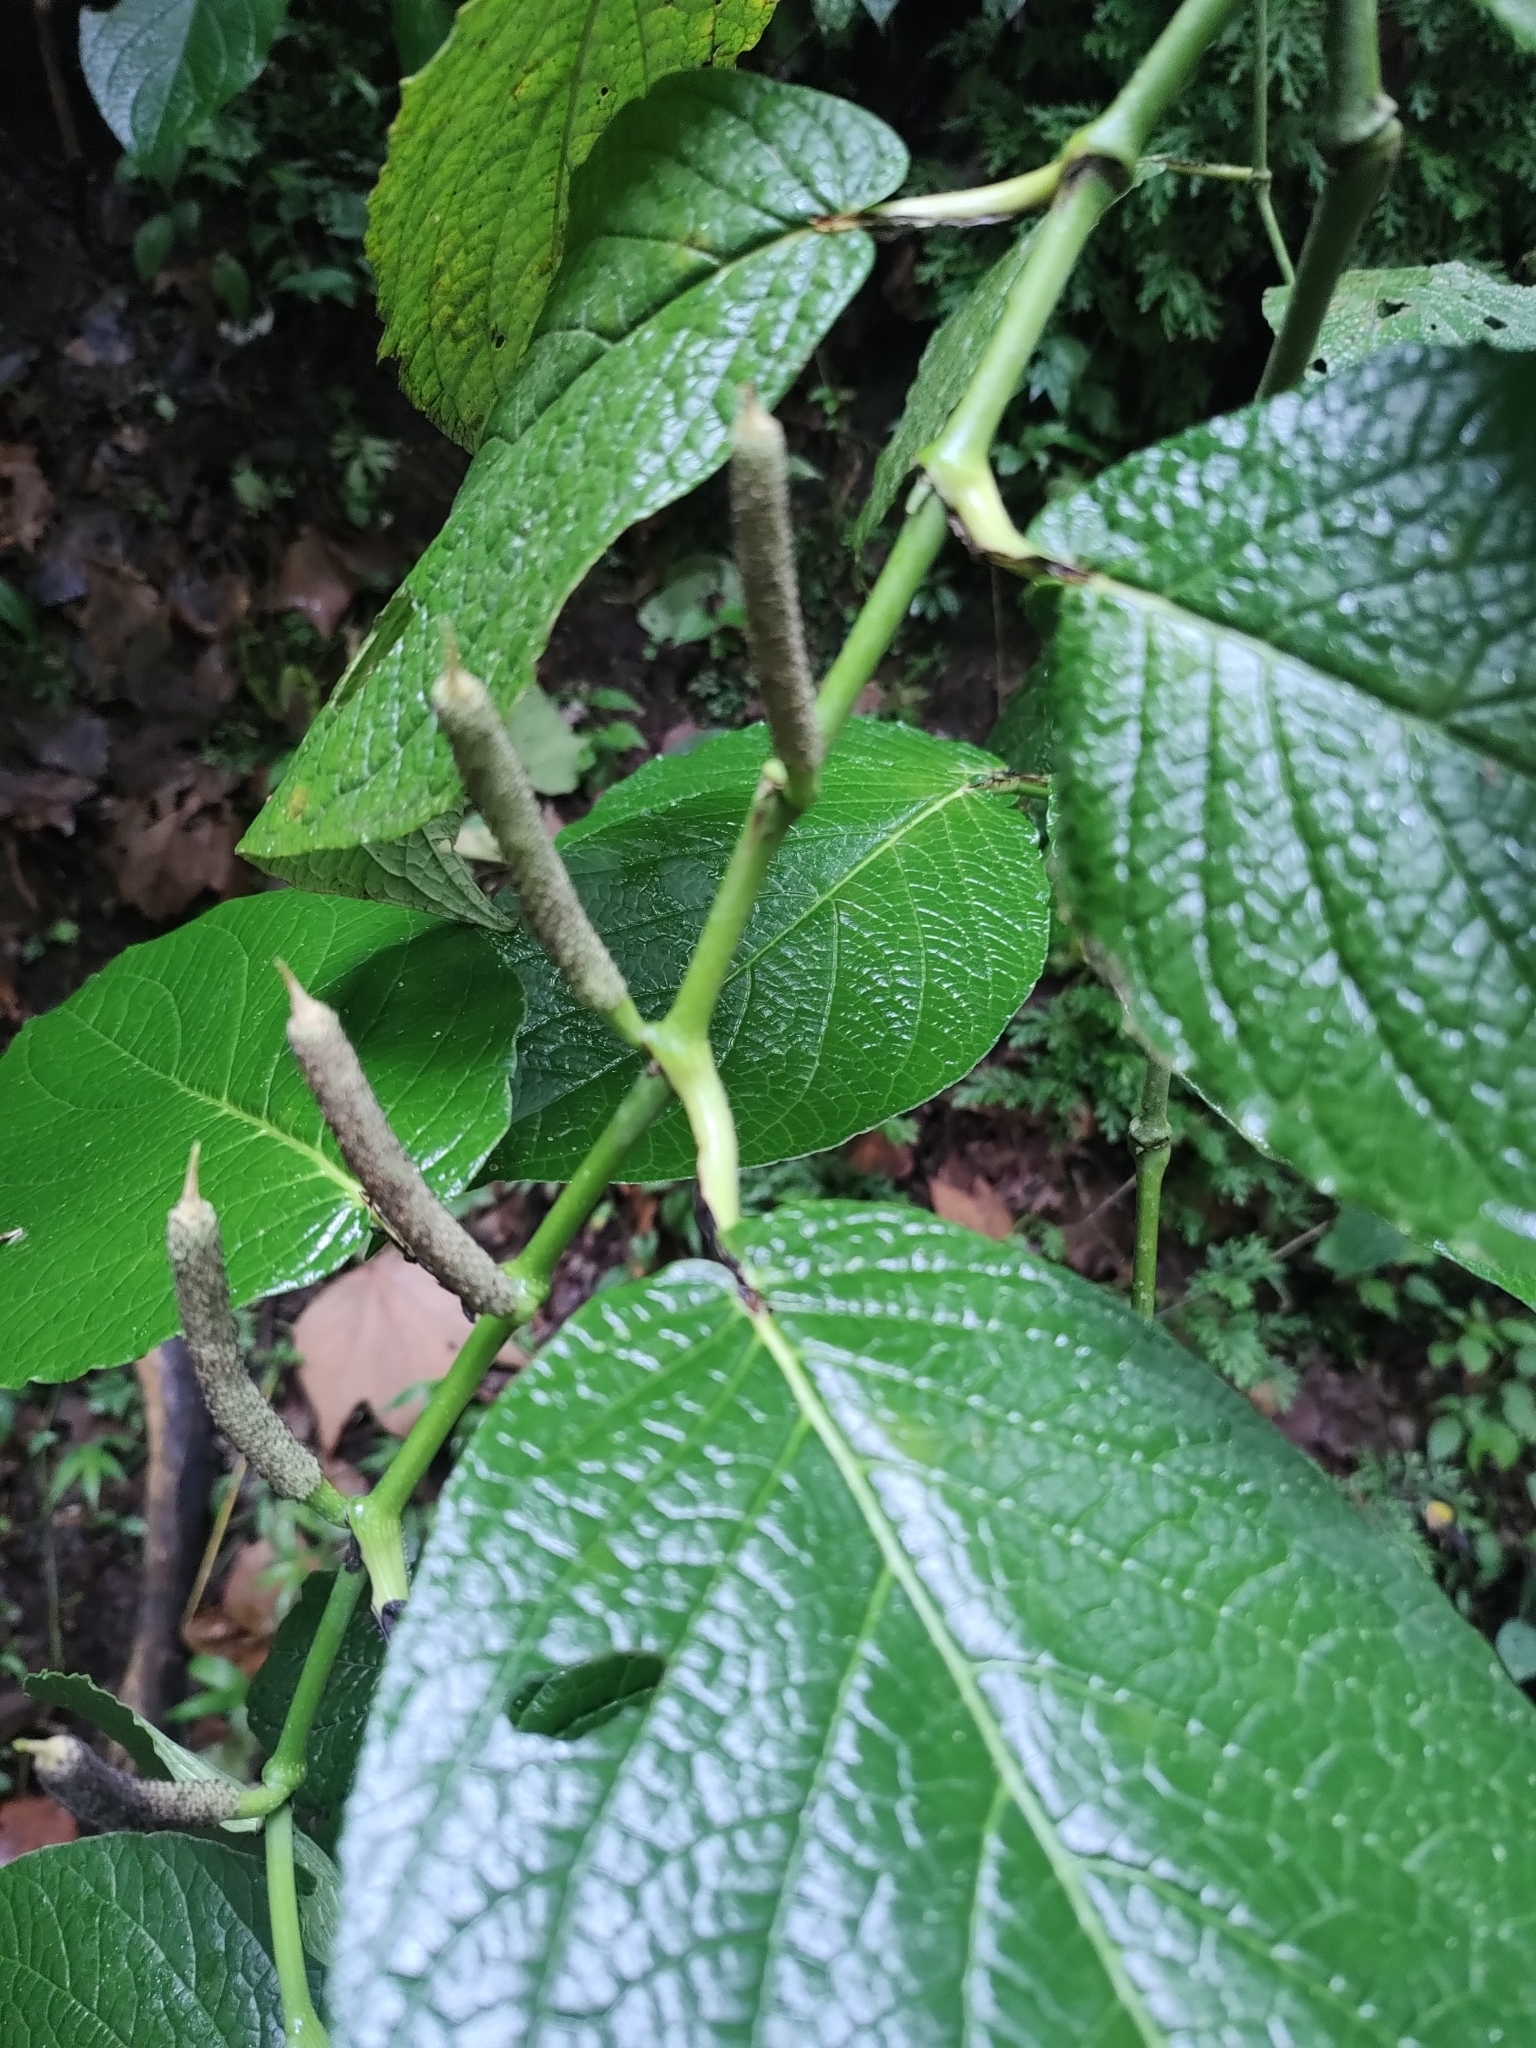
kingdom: Plantae
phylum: Tracheophyta
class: Magnoliopsida
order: Piperales
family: Piperaceae
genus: Piper
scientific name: Piper lapathifolium
